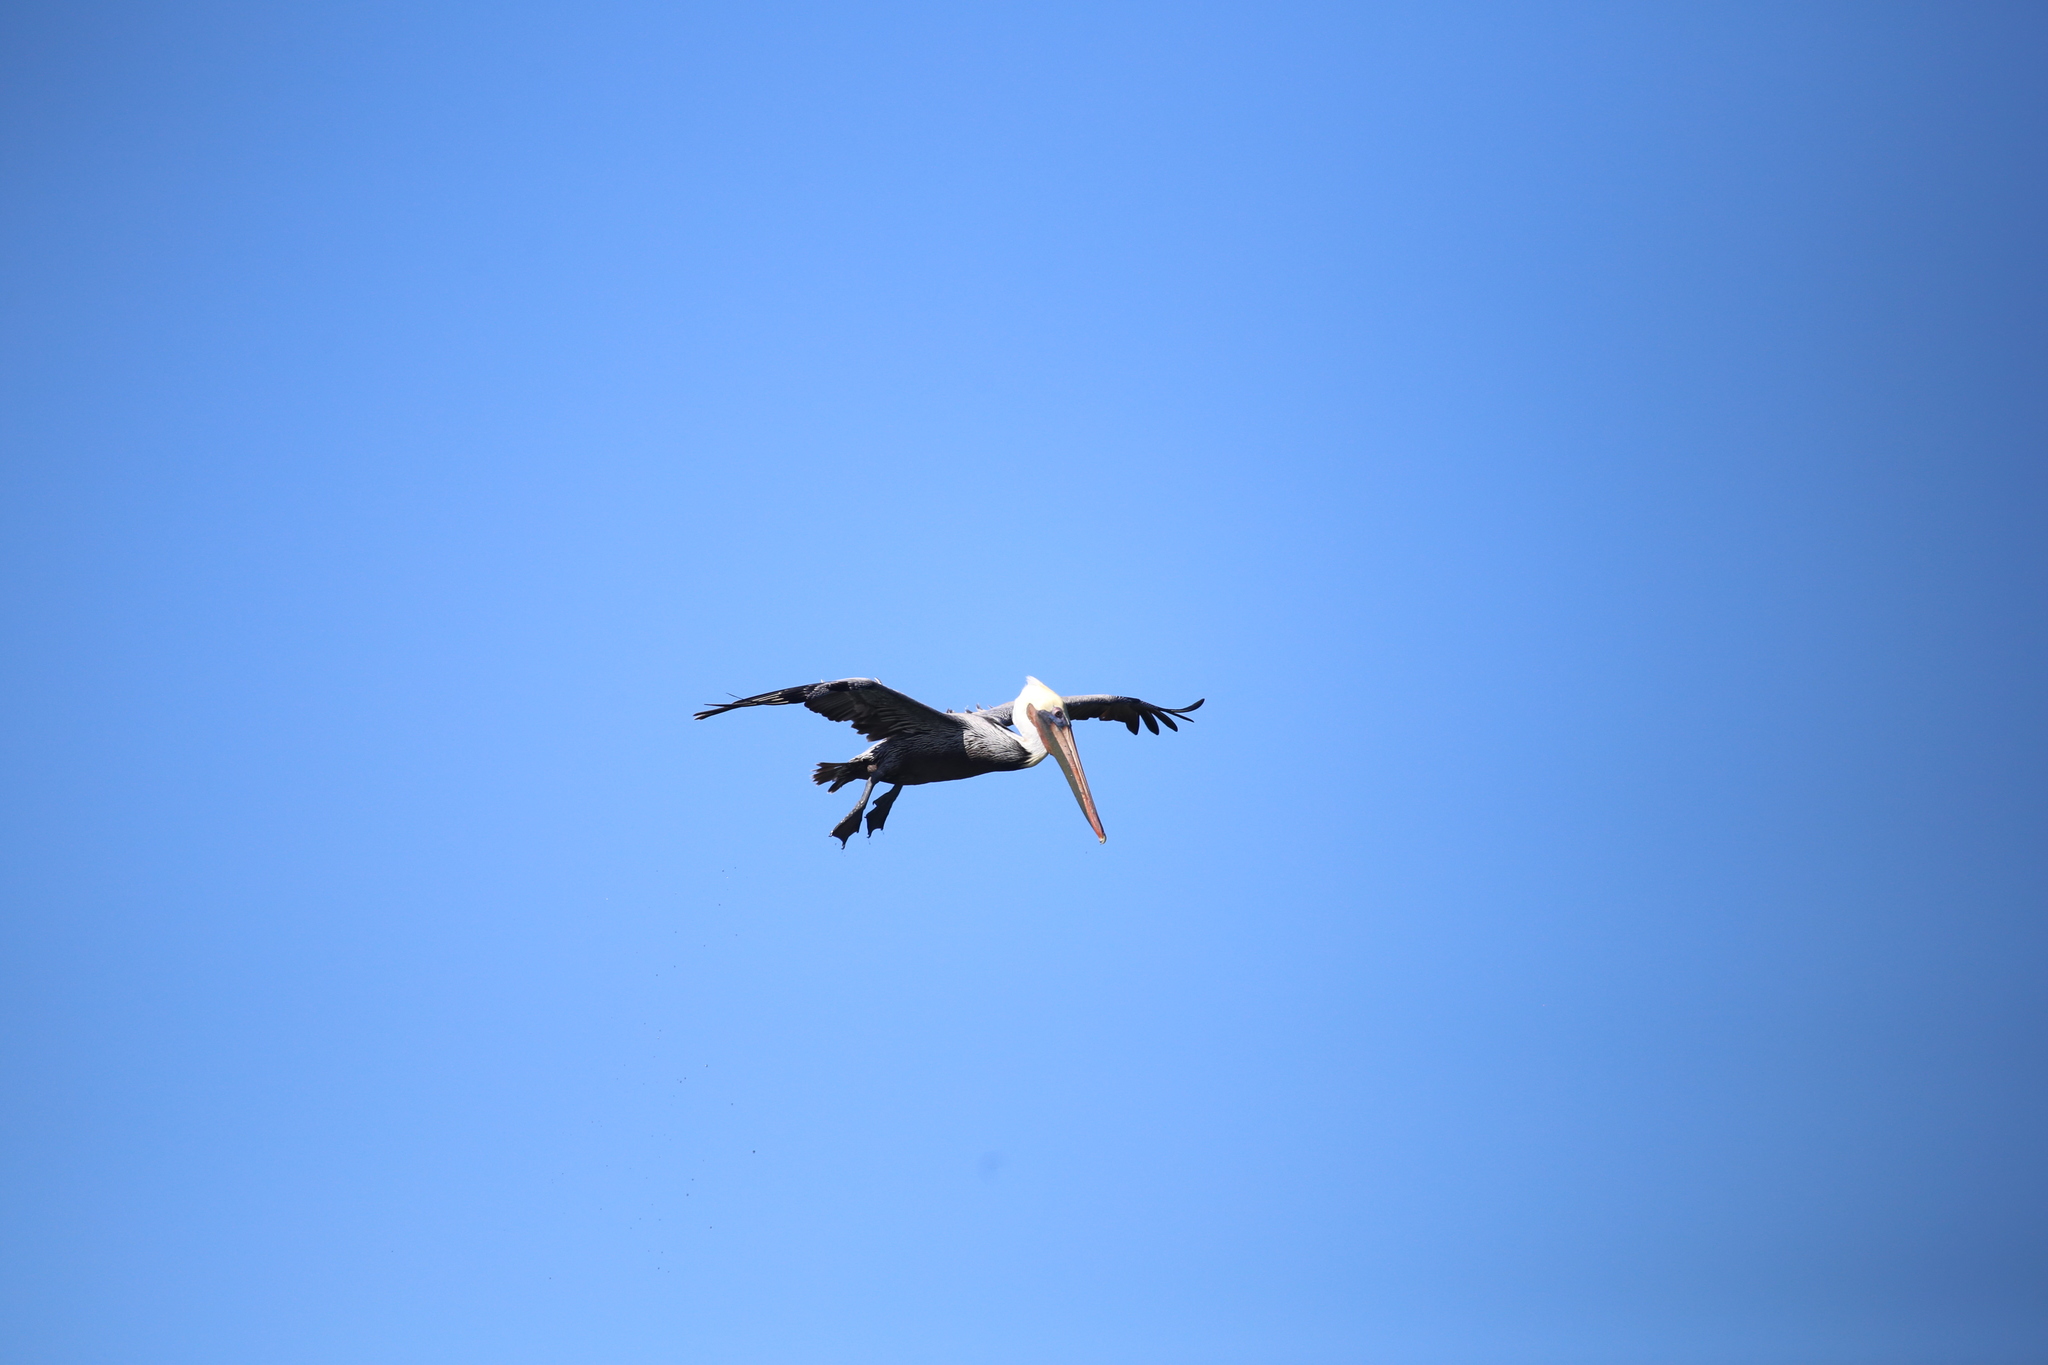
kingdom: Animalia
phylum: Chordata
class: Aves
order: Pelecaniformes
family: Pelecanidae
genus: Pelecanus
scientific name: Pelecanus occidentalis
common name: Brown pelican
